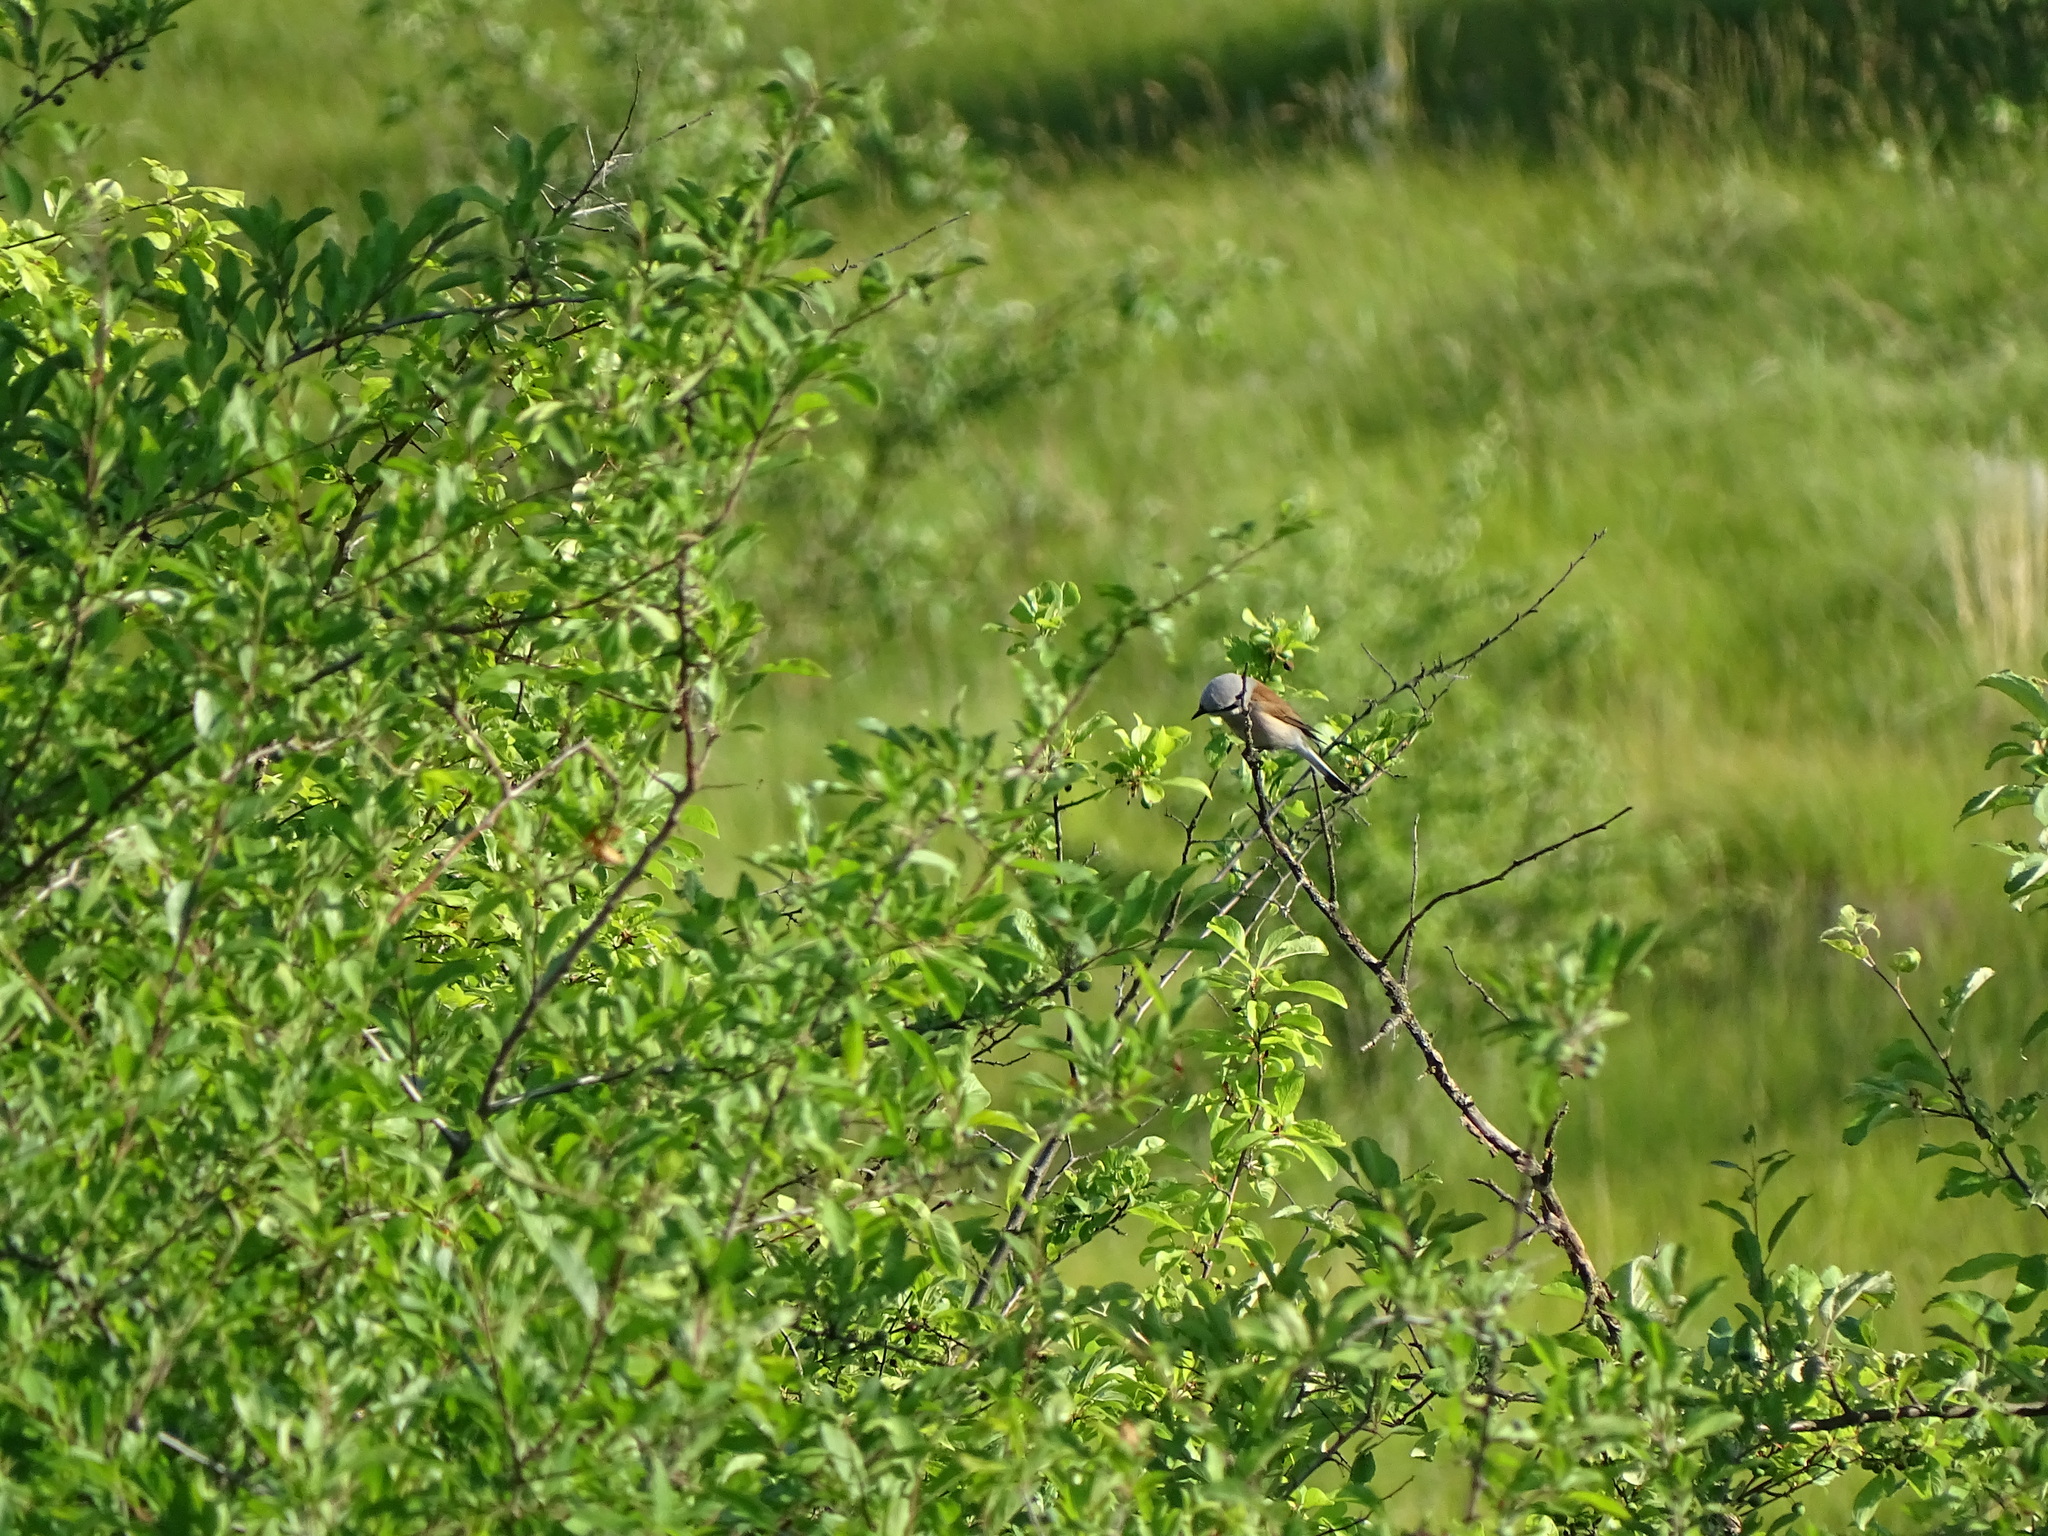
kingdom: Animalia
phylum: Chordata
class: Aves
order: Passeriformes
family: Laniidae
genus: Lanius
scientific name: Lanius collurio
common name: Red-backed shrike
